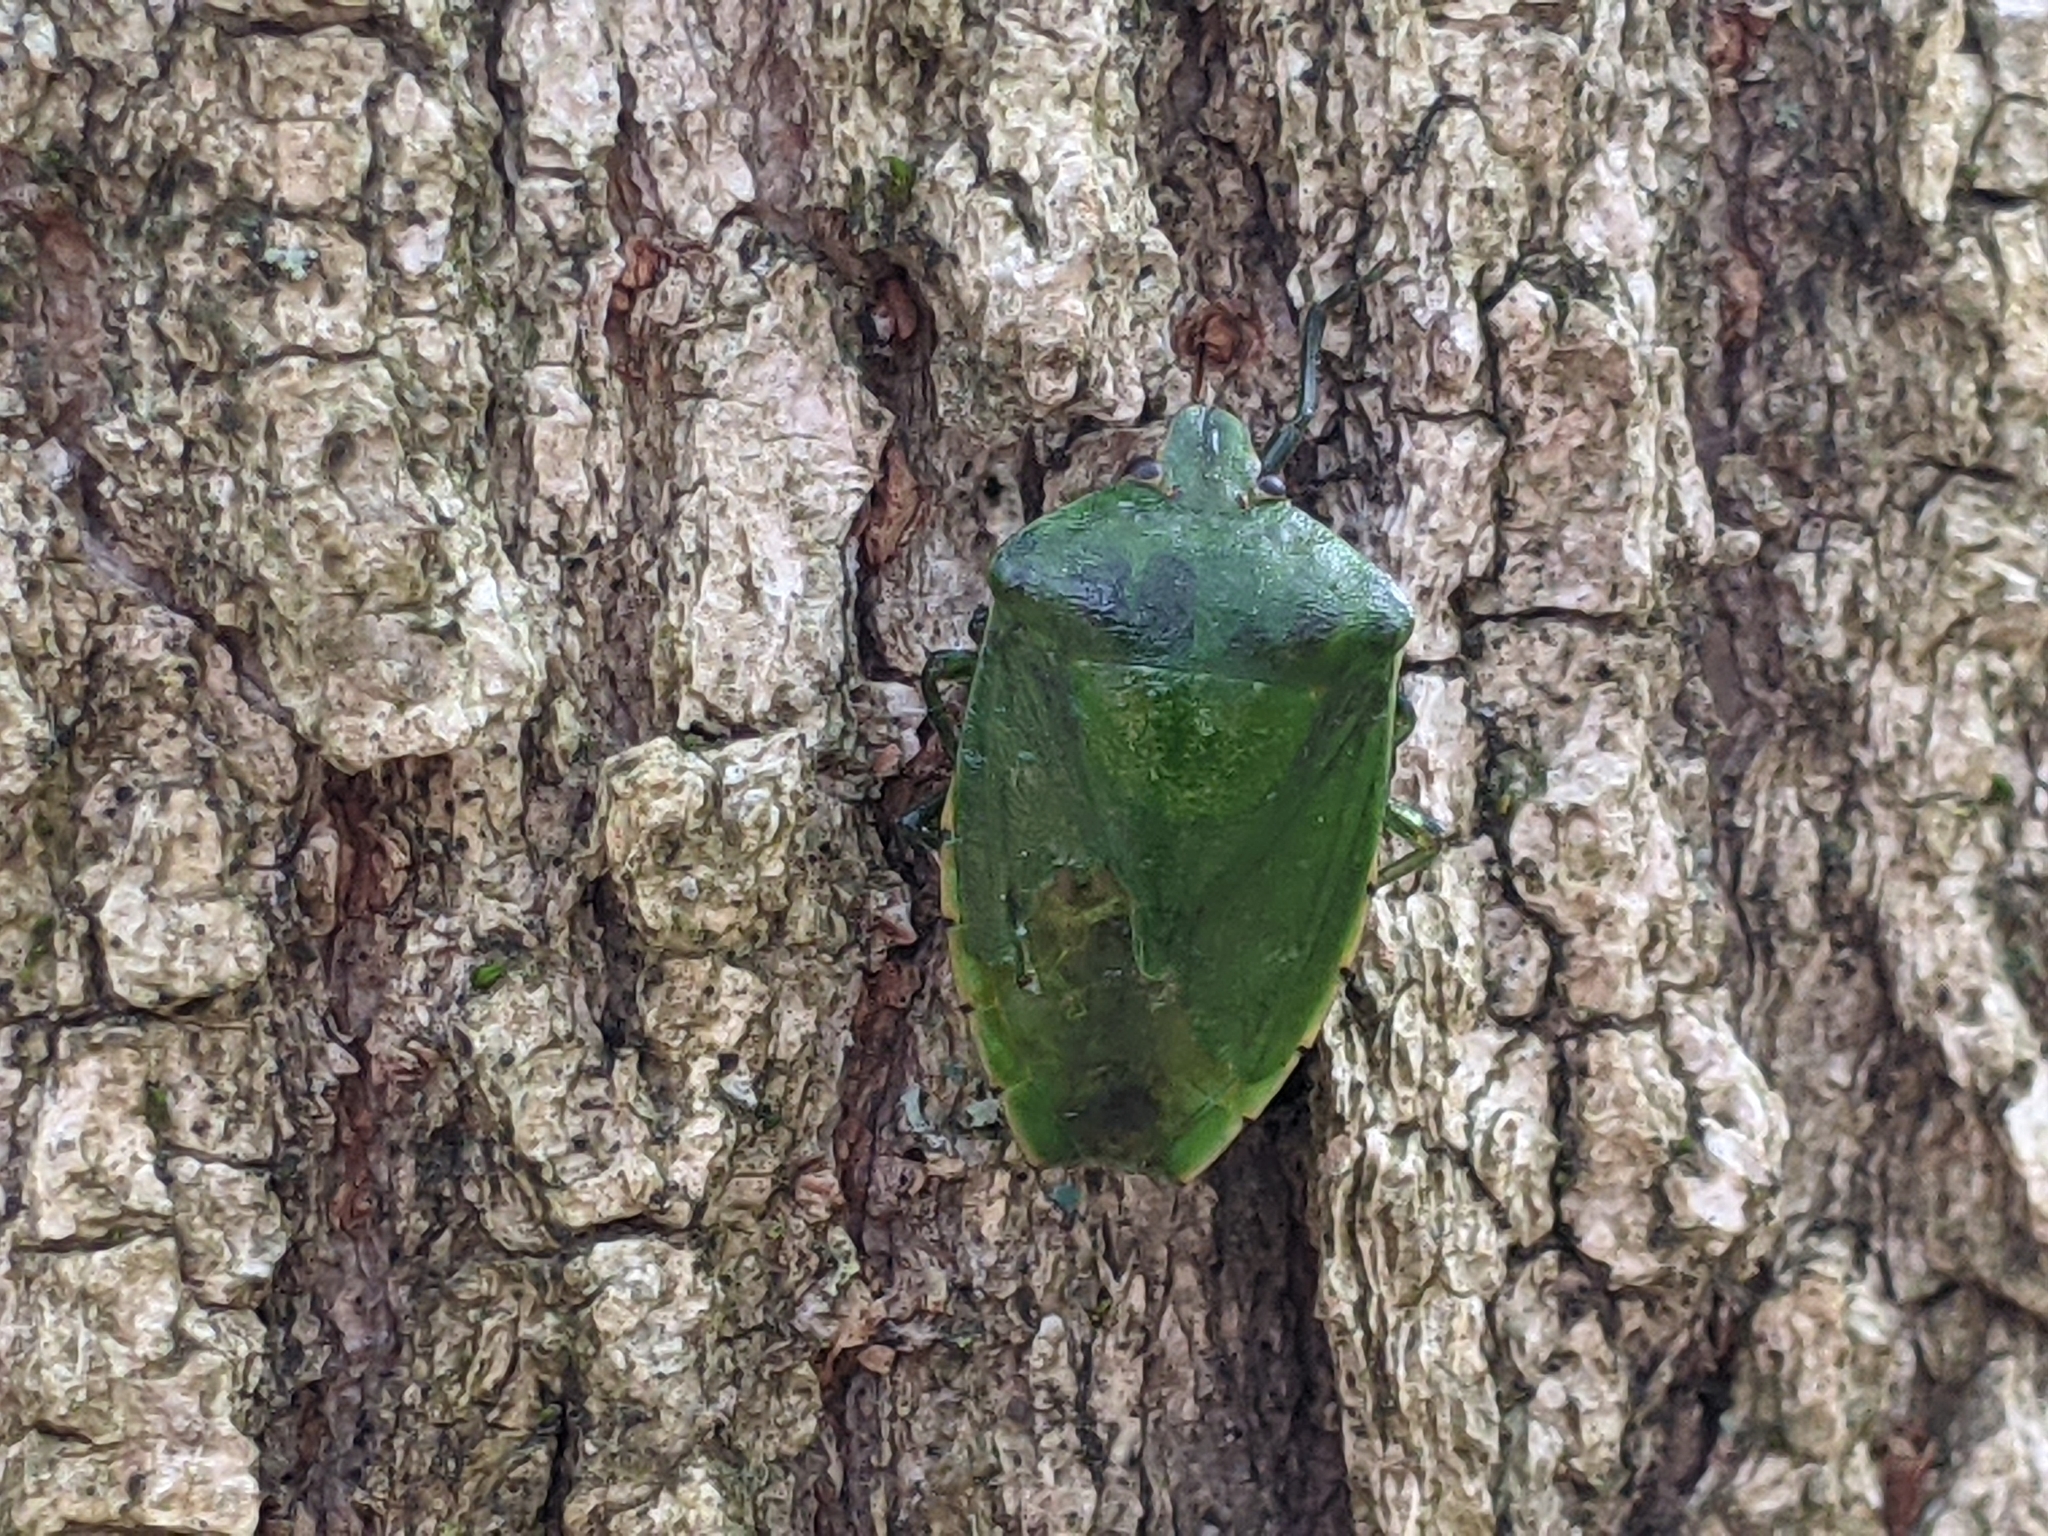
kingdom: Animalia
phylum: Arthropoda
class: Insecta
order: Hemiptera
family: Pentatomidae
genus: Chinavia
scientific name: Chinavia hilaris
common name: Green stink bug
